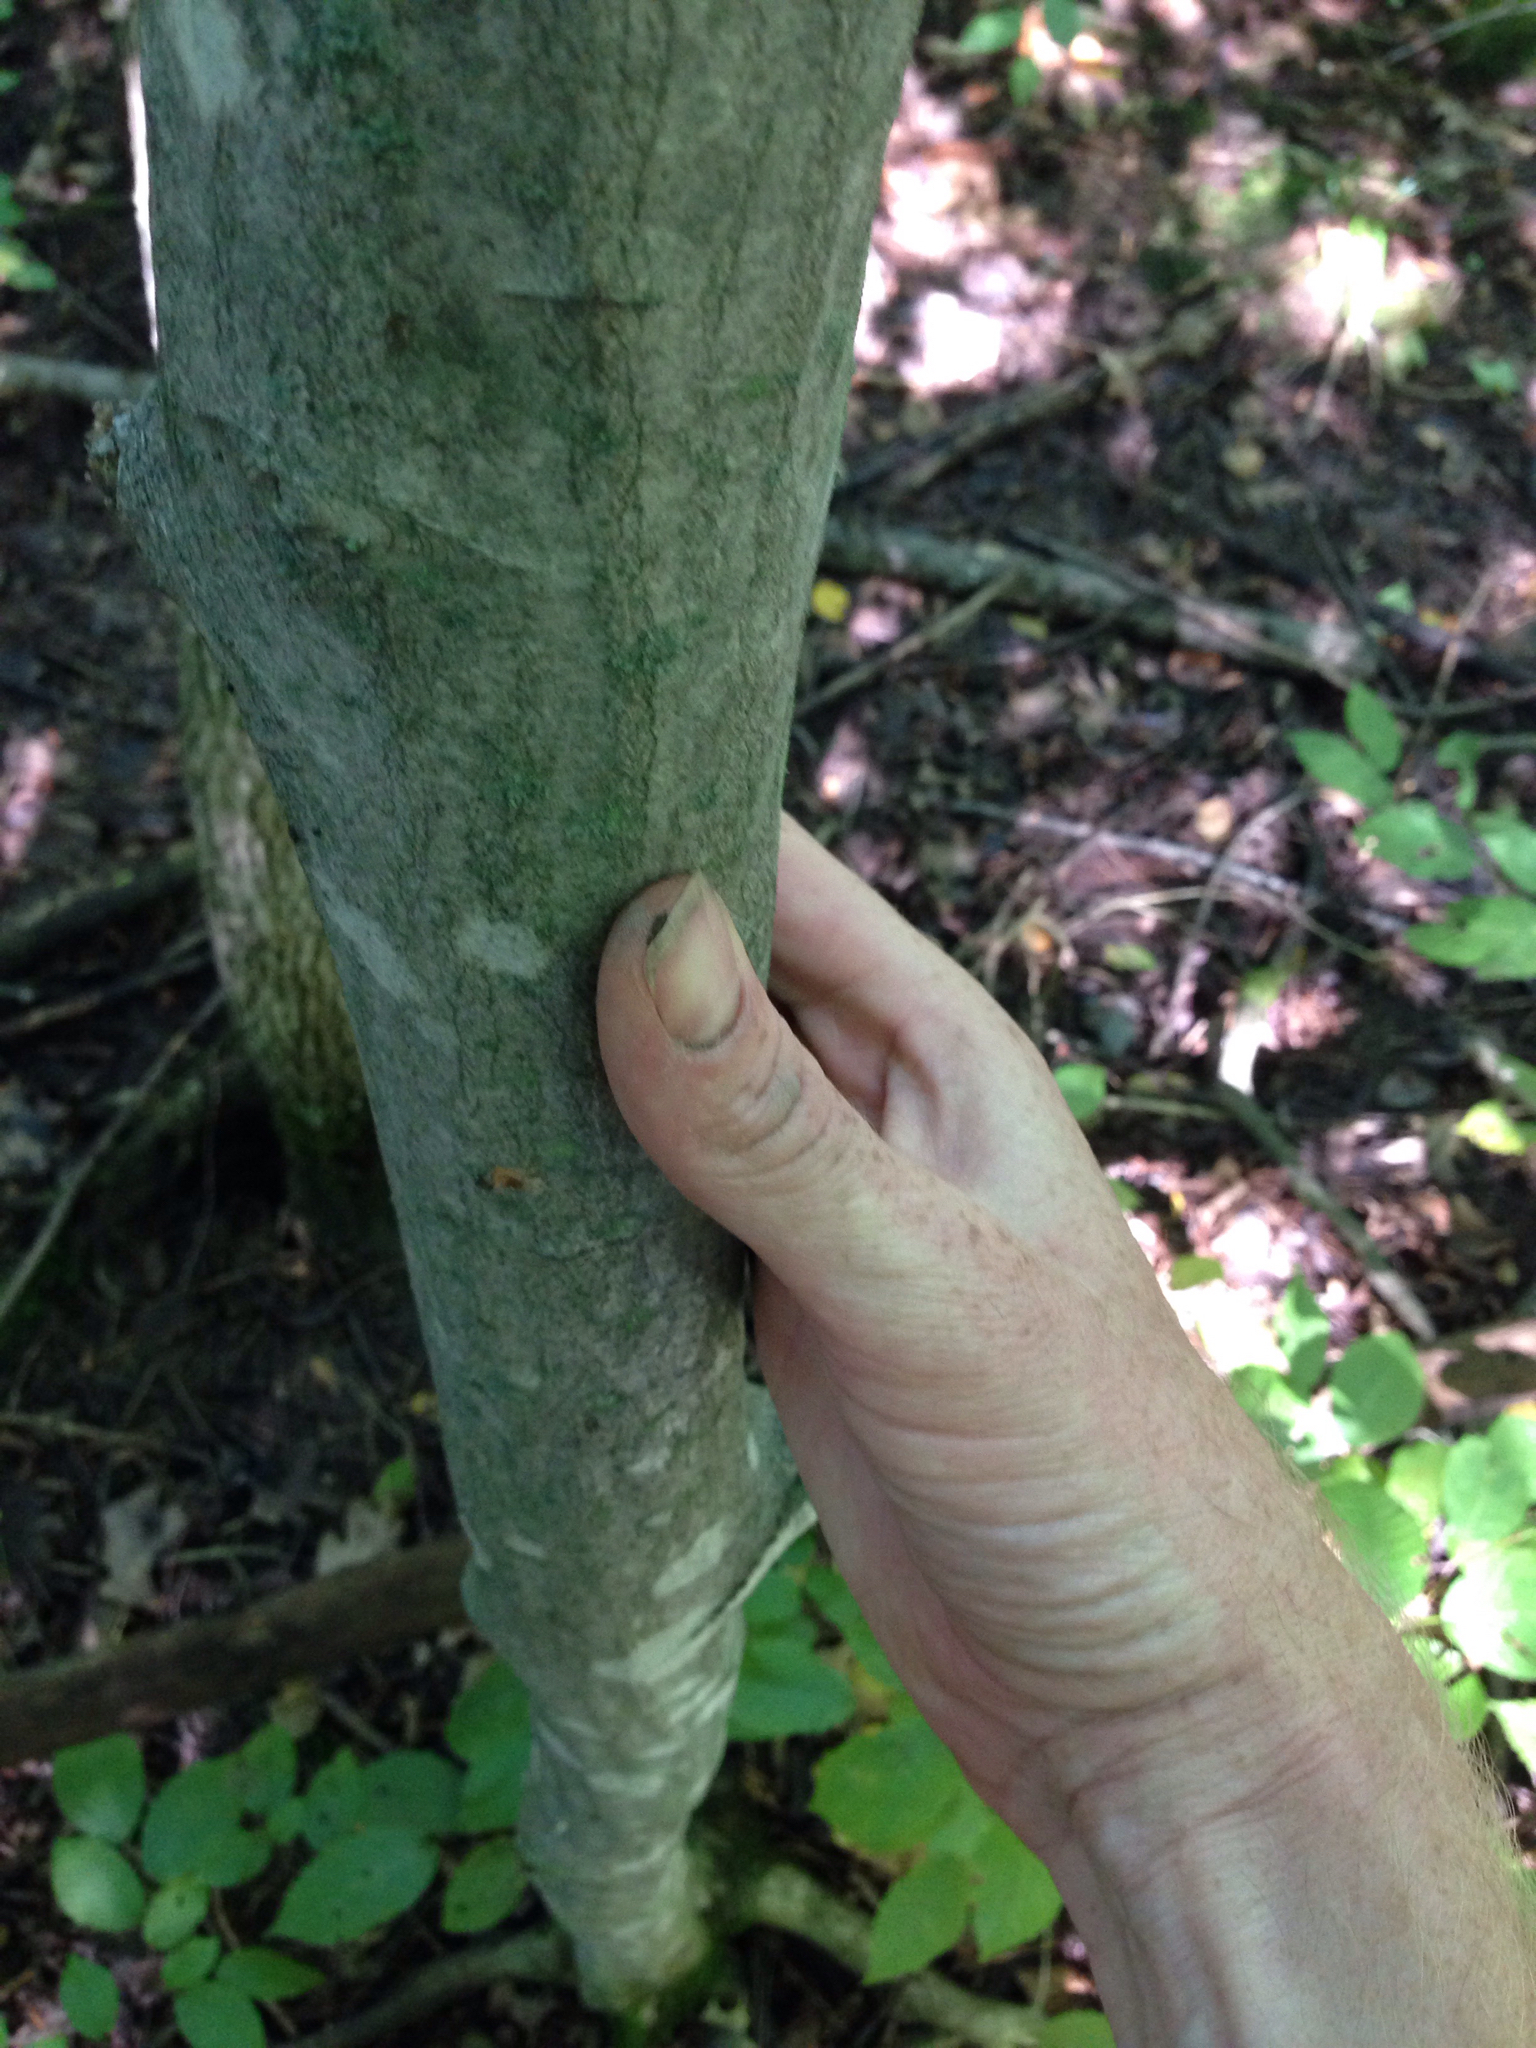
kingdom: Plantae
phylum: Tracheophyta
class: Magnoliopsida
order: Fagales
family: Betulaceae
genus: Carpinus
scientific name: Carpinus caroliniana
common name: American hornbeam
